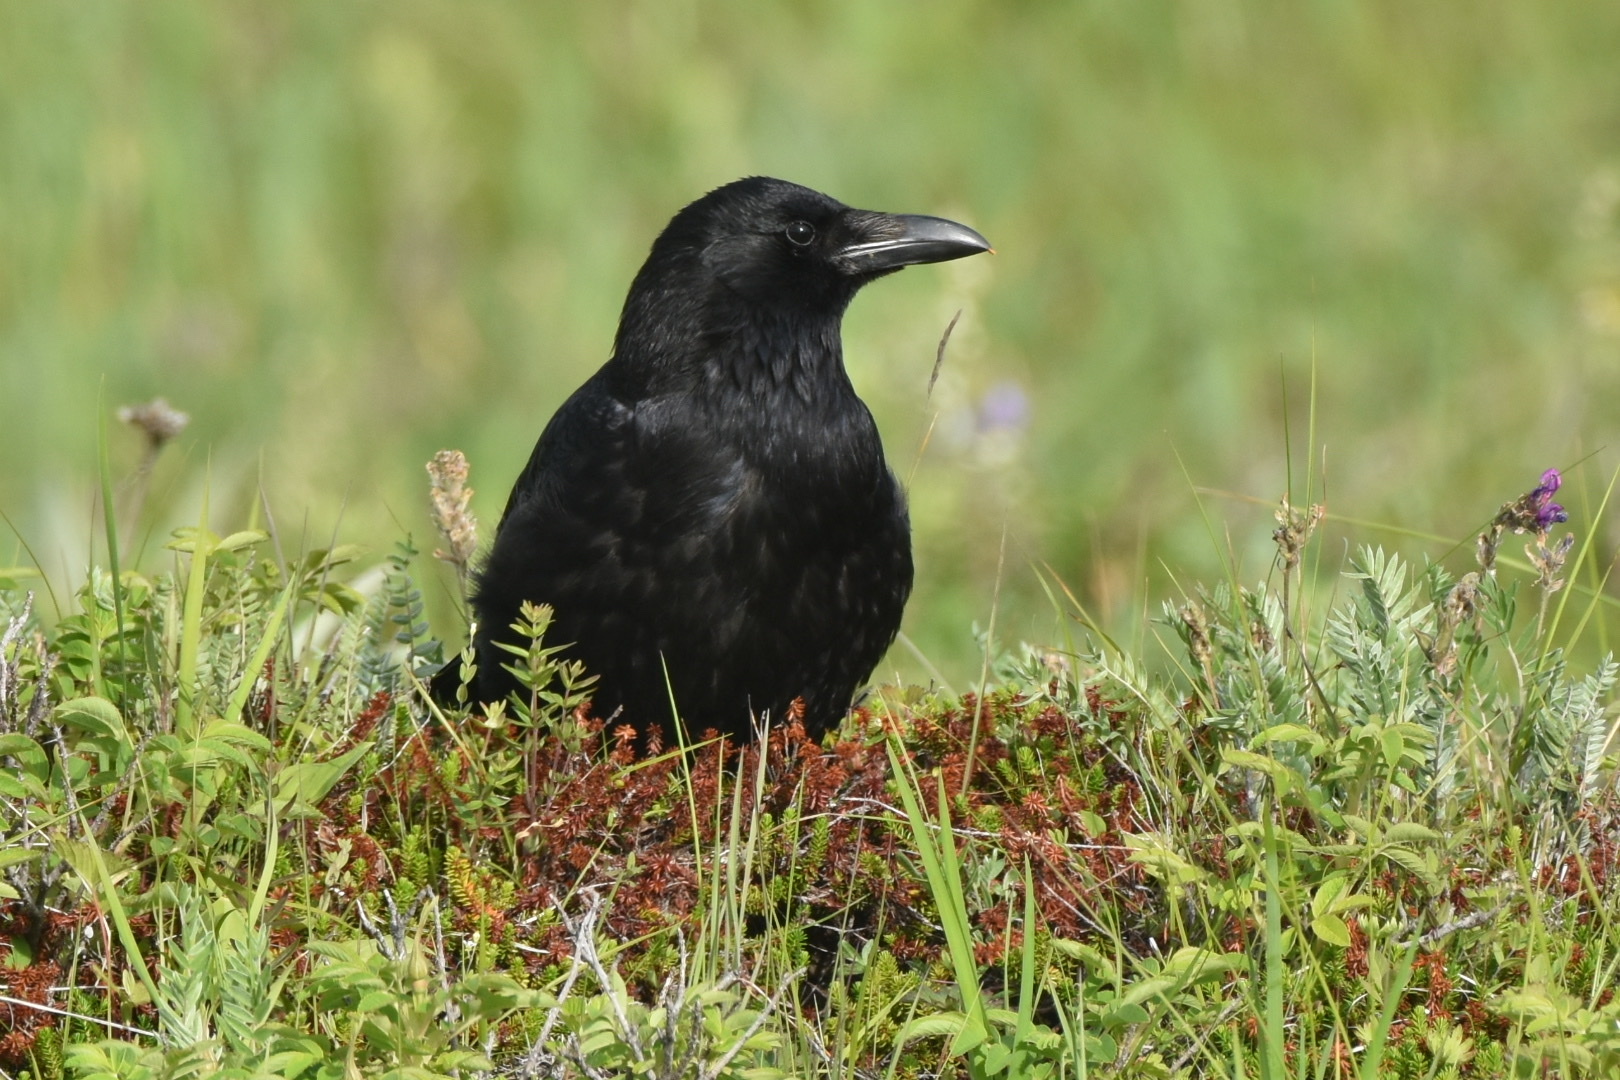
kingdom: Animalia
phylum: Chordata
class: Aves
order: Passeriformes
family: Corvidae
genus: Corvus
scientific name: Corvus corone
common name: Carrion crow
